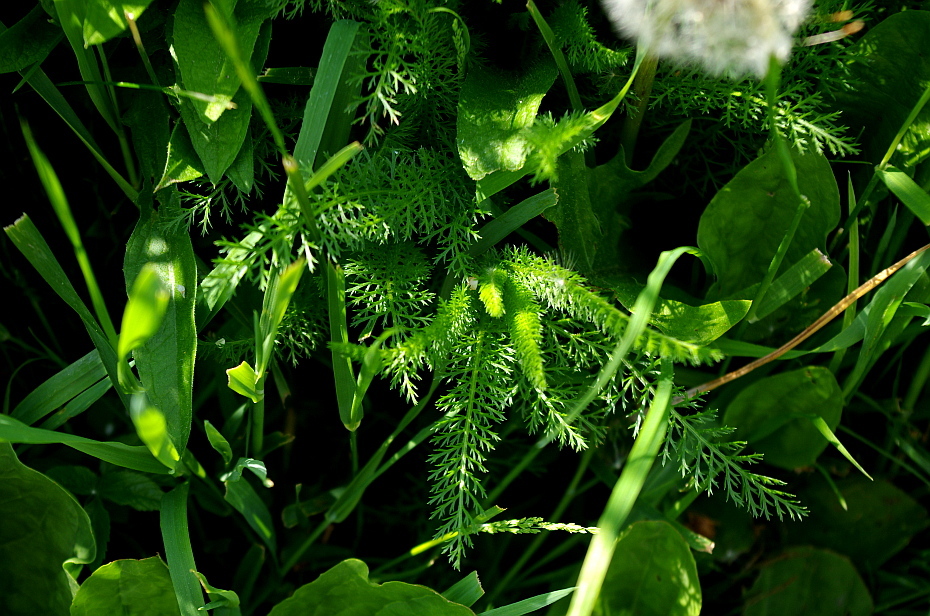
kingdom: Plantae
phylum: Tracheophyta
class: Magnoliopsida
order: Asterales
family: Asteraceae
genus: Achillea
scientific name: Achillea millefolium
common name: Yarrow
